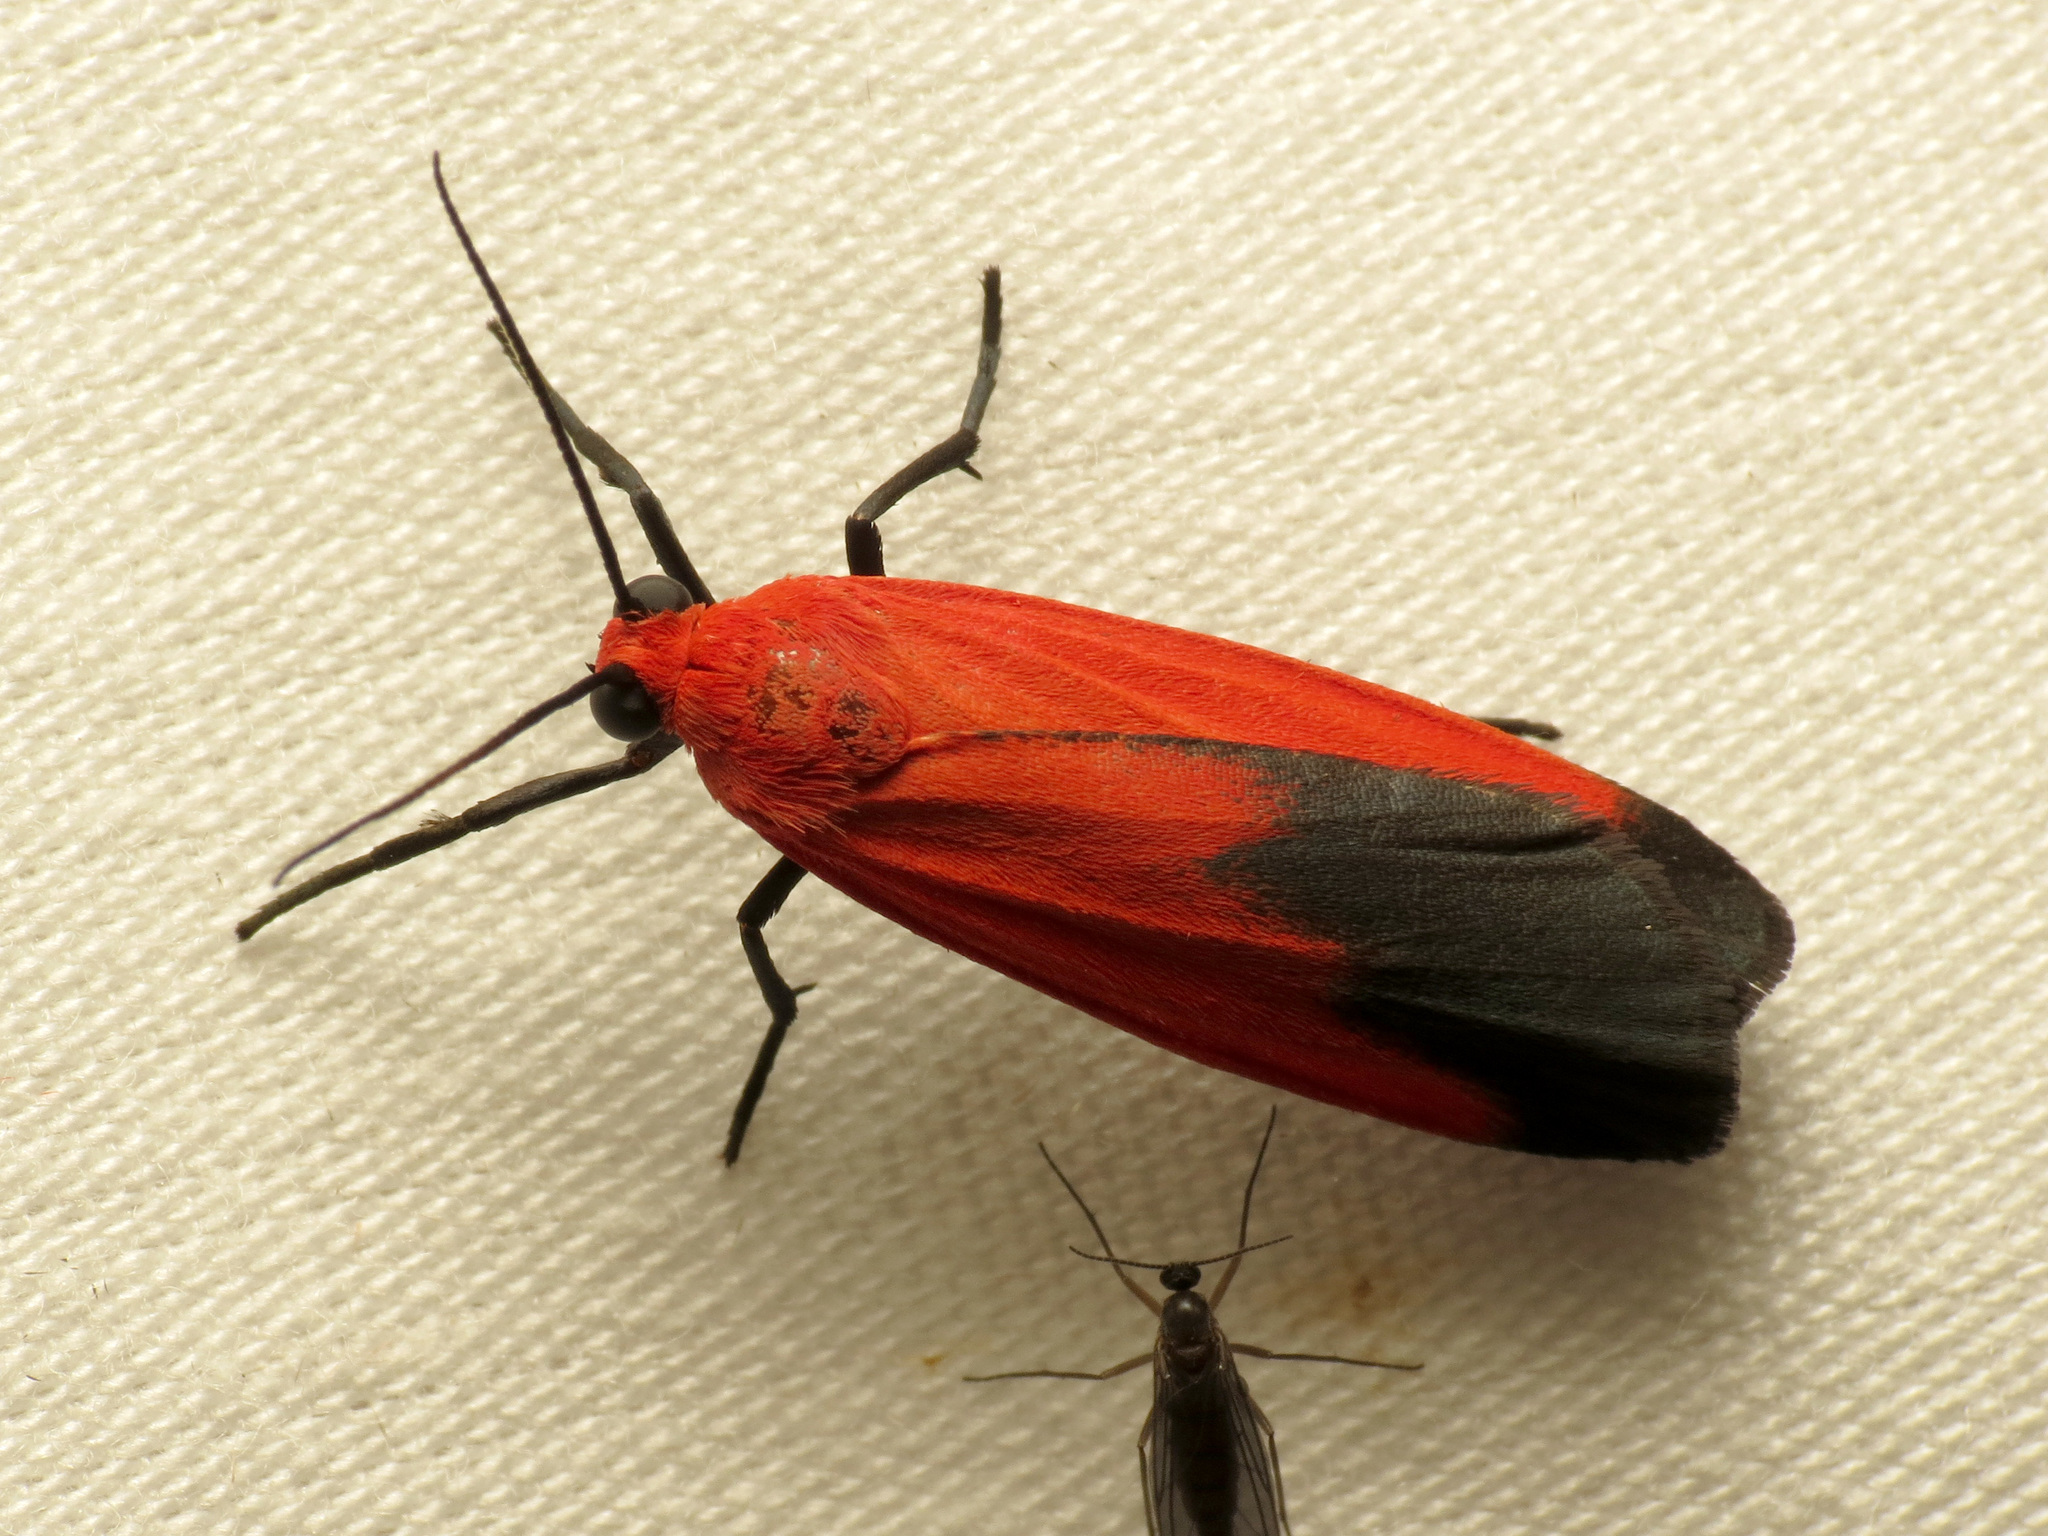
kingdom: Animalia
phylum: Arthropoda
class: Insecta
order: Lepidoptera
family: Erebidae
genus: Ptychoglene
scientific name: Ptychoglene coccinea
